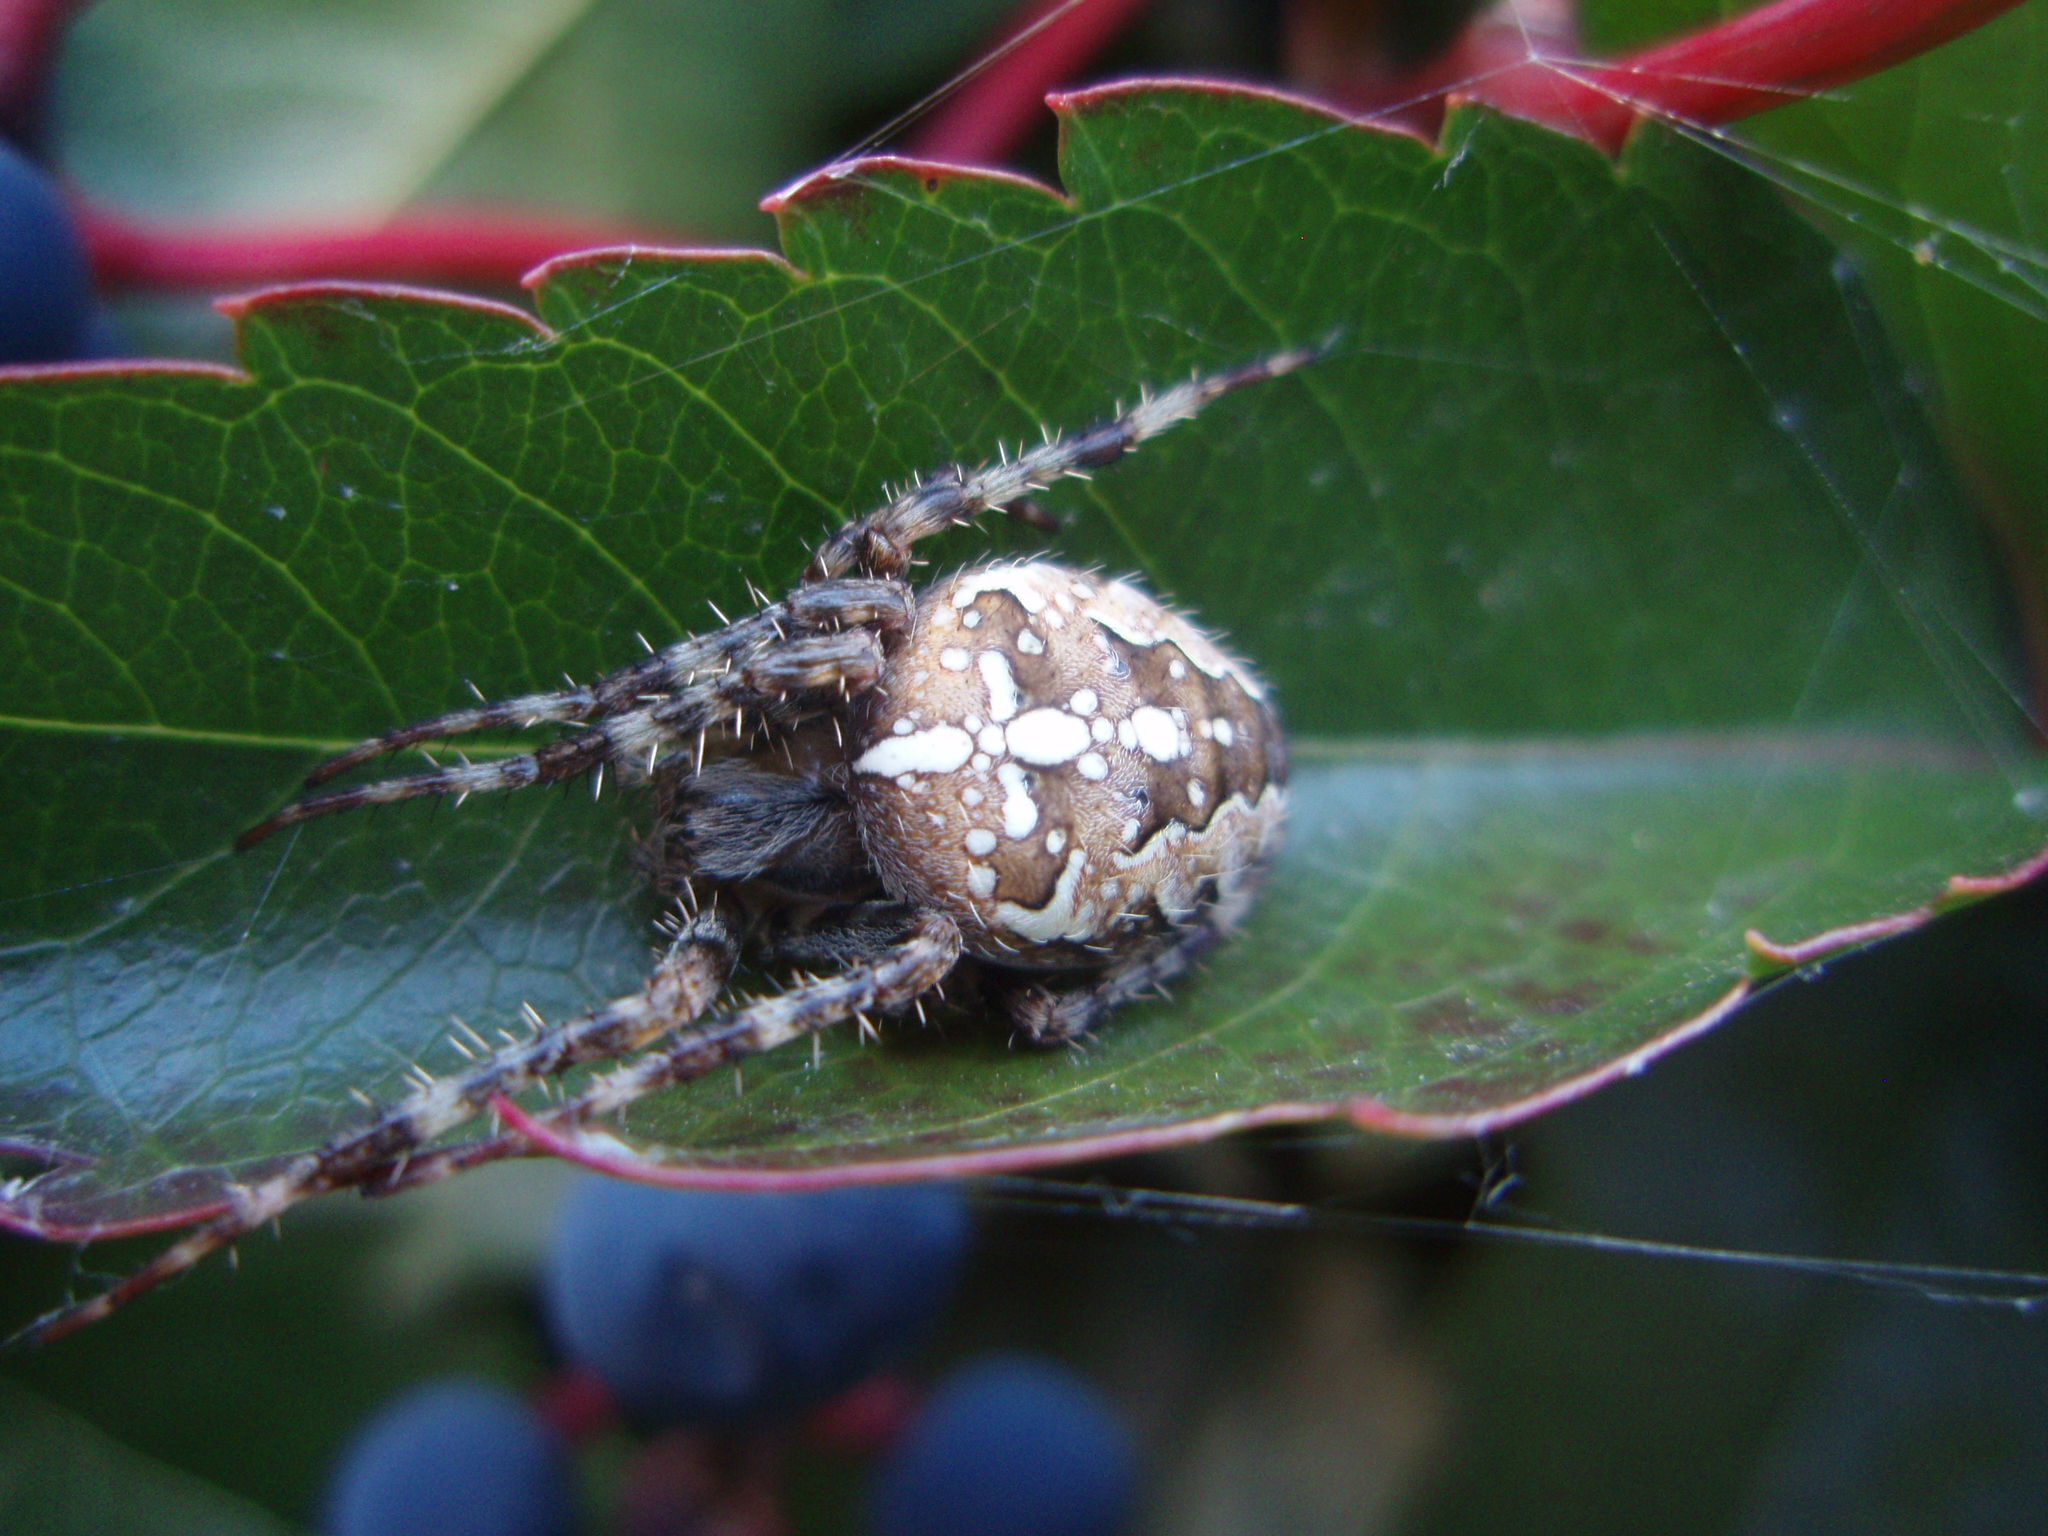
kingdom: Animalia
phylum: Arthropoda
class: Arachnida
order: Araneae
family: Araneidae
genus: Araneus
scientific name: Araneus diadematus
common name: Cross orbweaver
